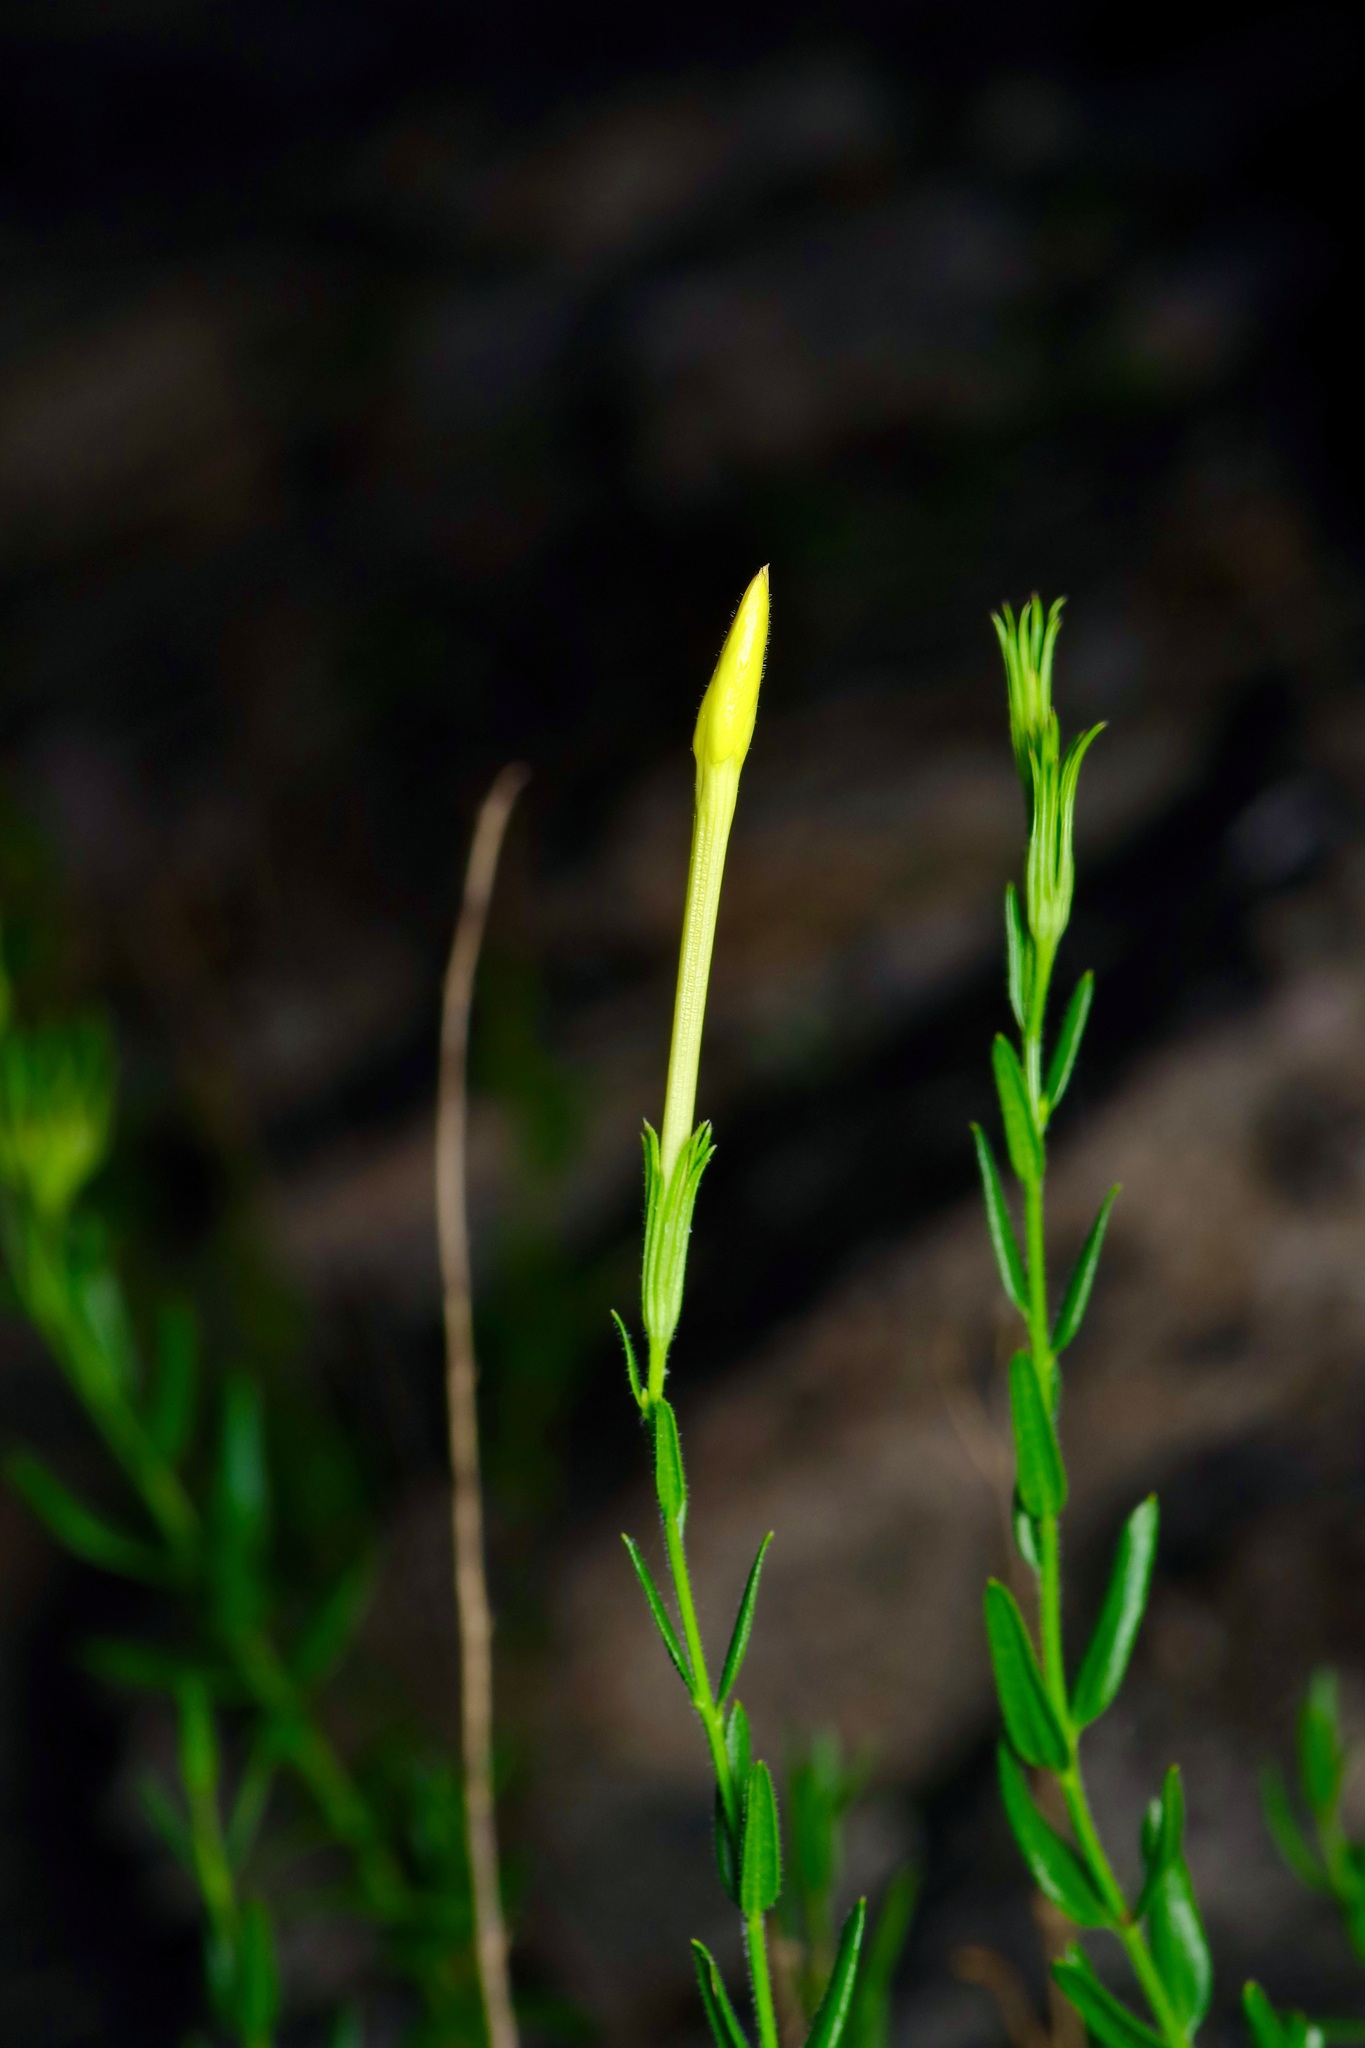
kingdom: Plantae
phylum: Tracheophyta
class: Magnoliopsida
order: Lamiales
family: Oleaceae
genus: Menodora
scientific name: Menodora longiflora
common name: Showy menodora
